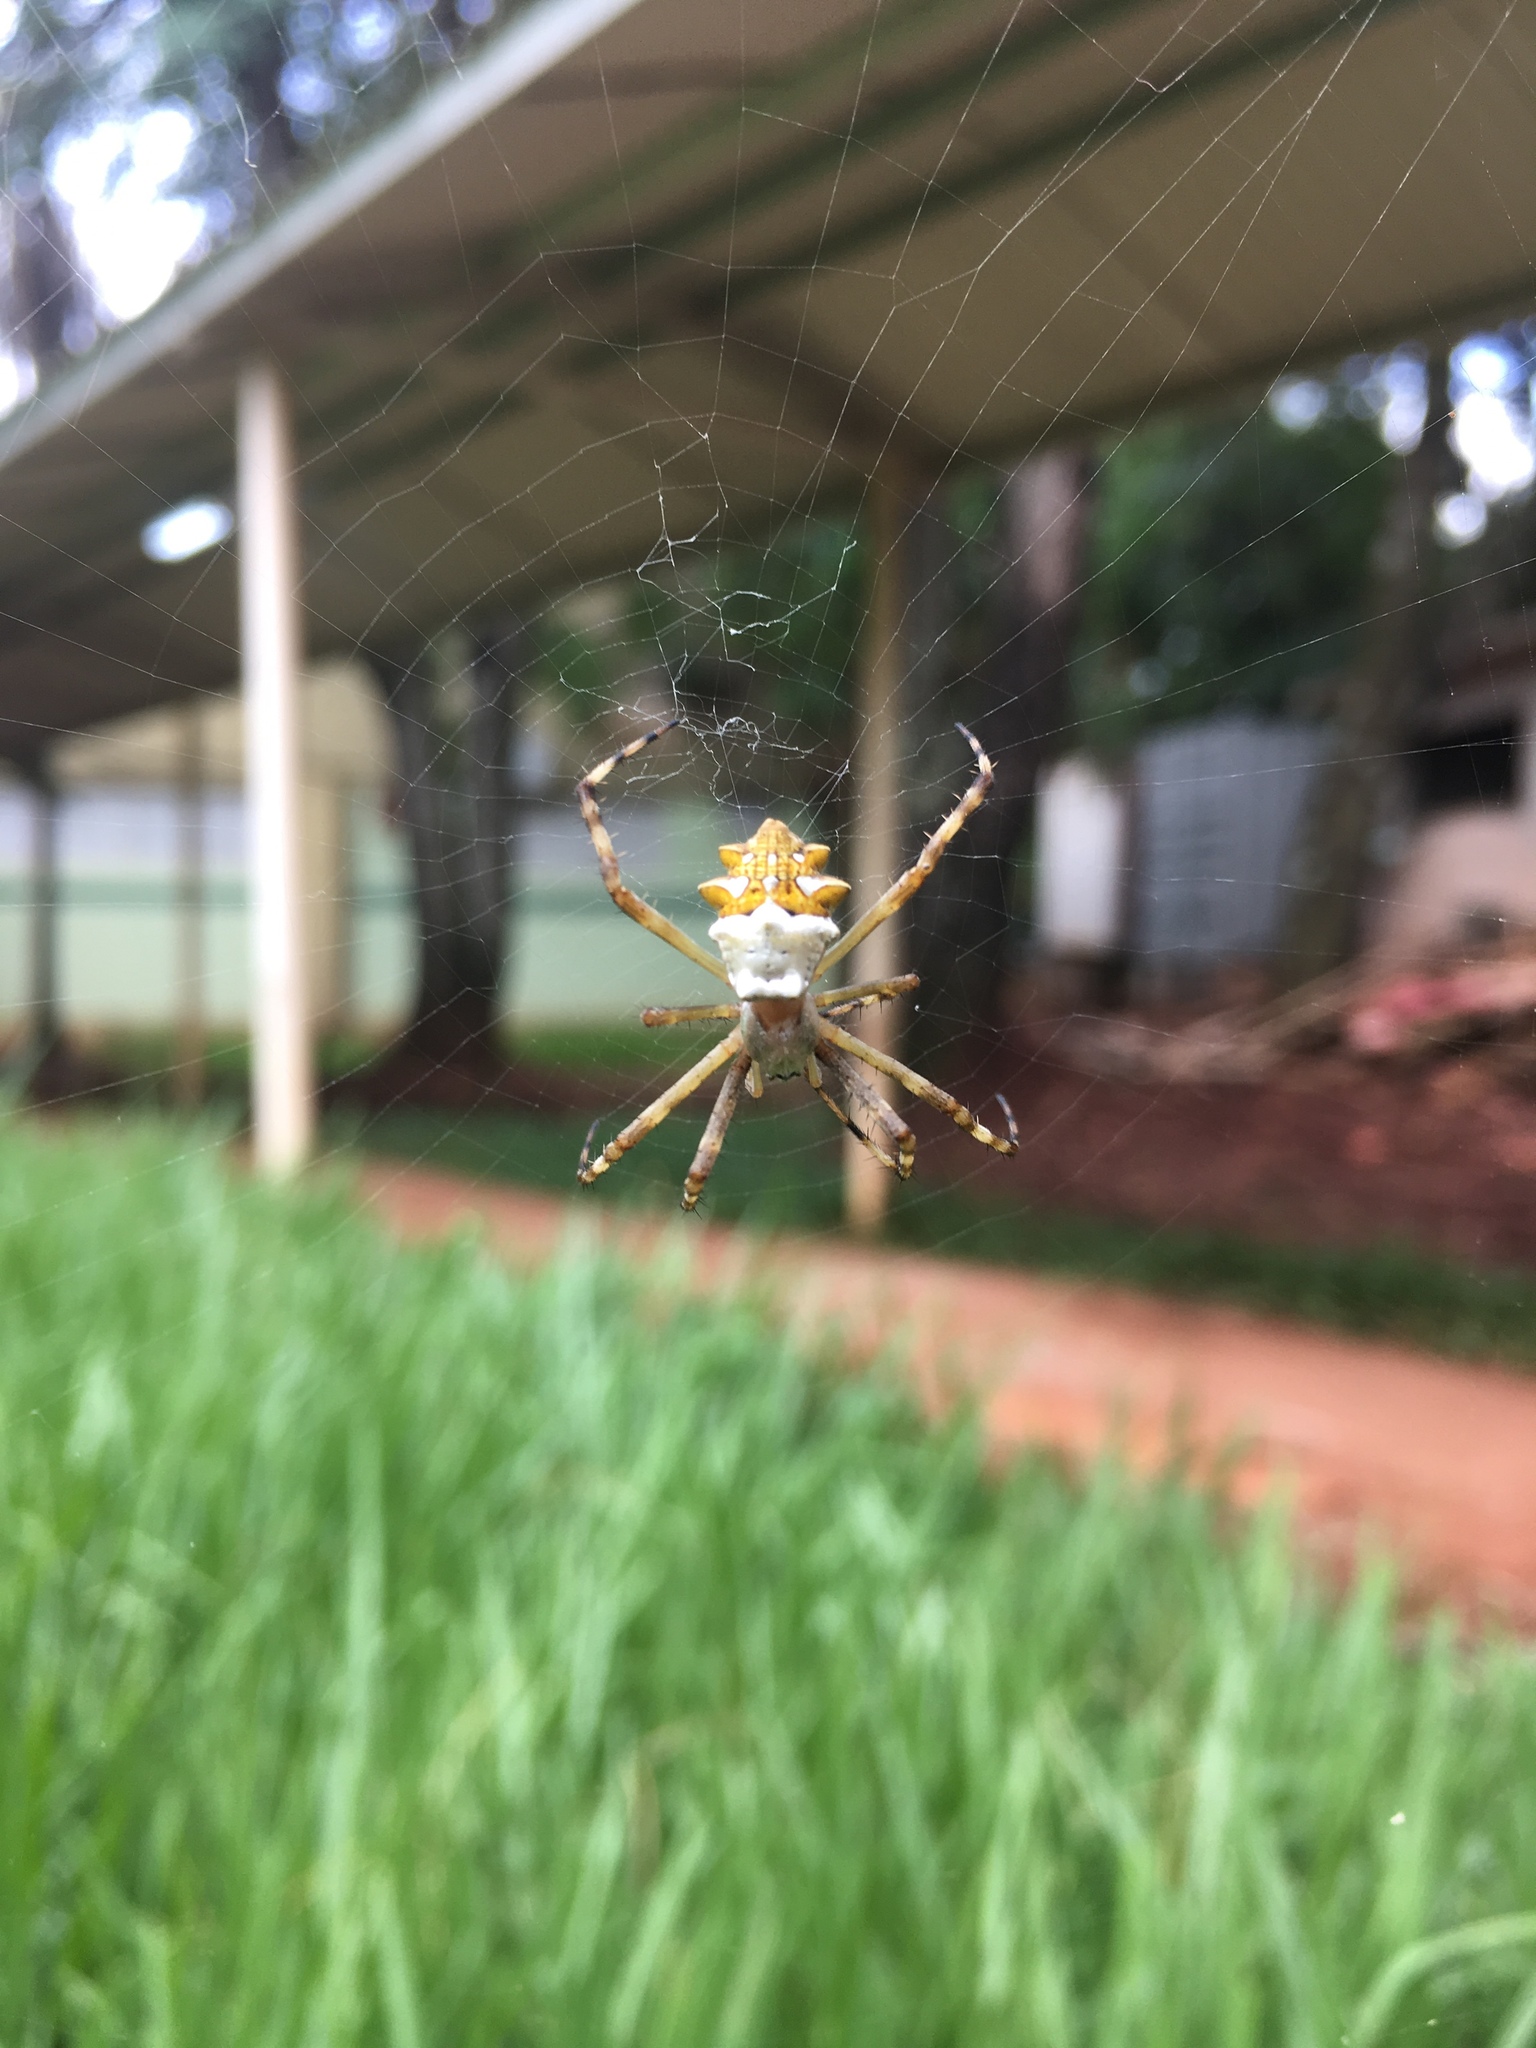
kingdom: Animalia
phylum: Arthropoda
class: Arachnida
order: Araneae
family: Araneidae
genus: Argiope
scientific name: Argiope argentata
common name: Orb weavers
